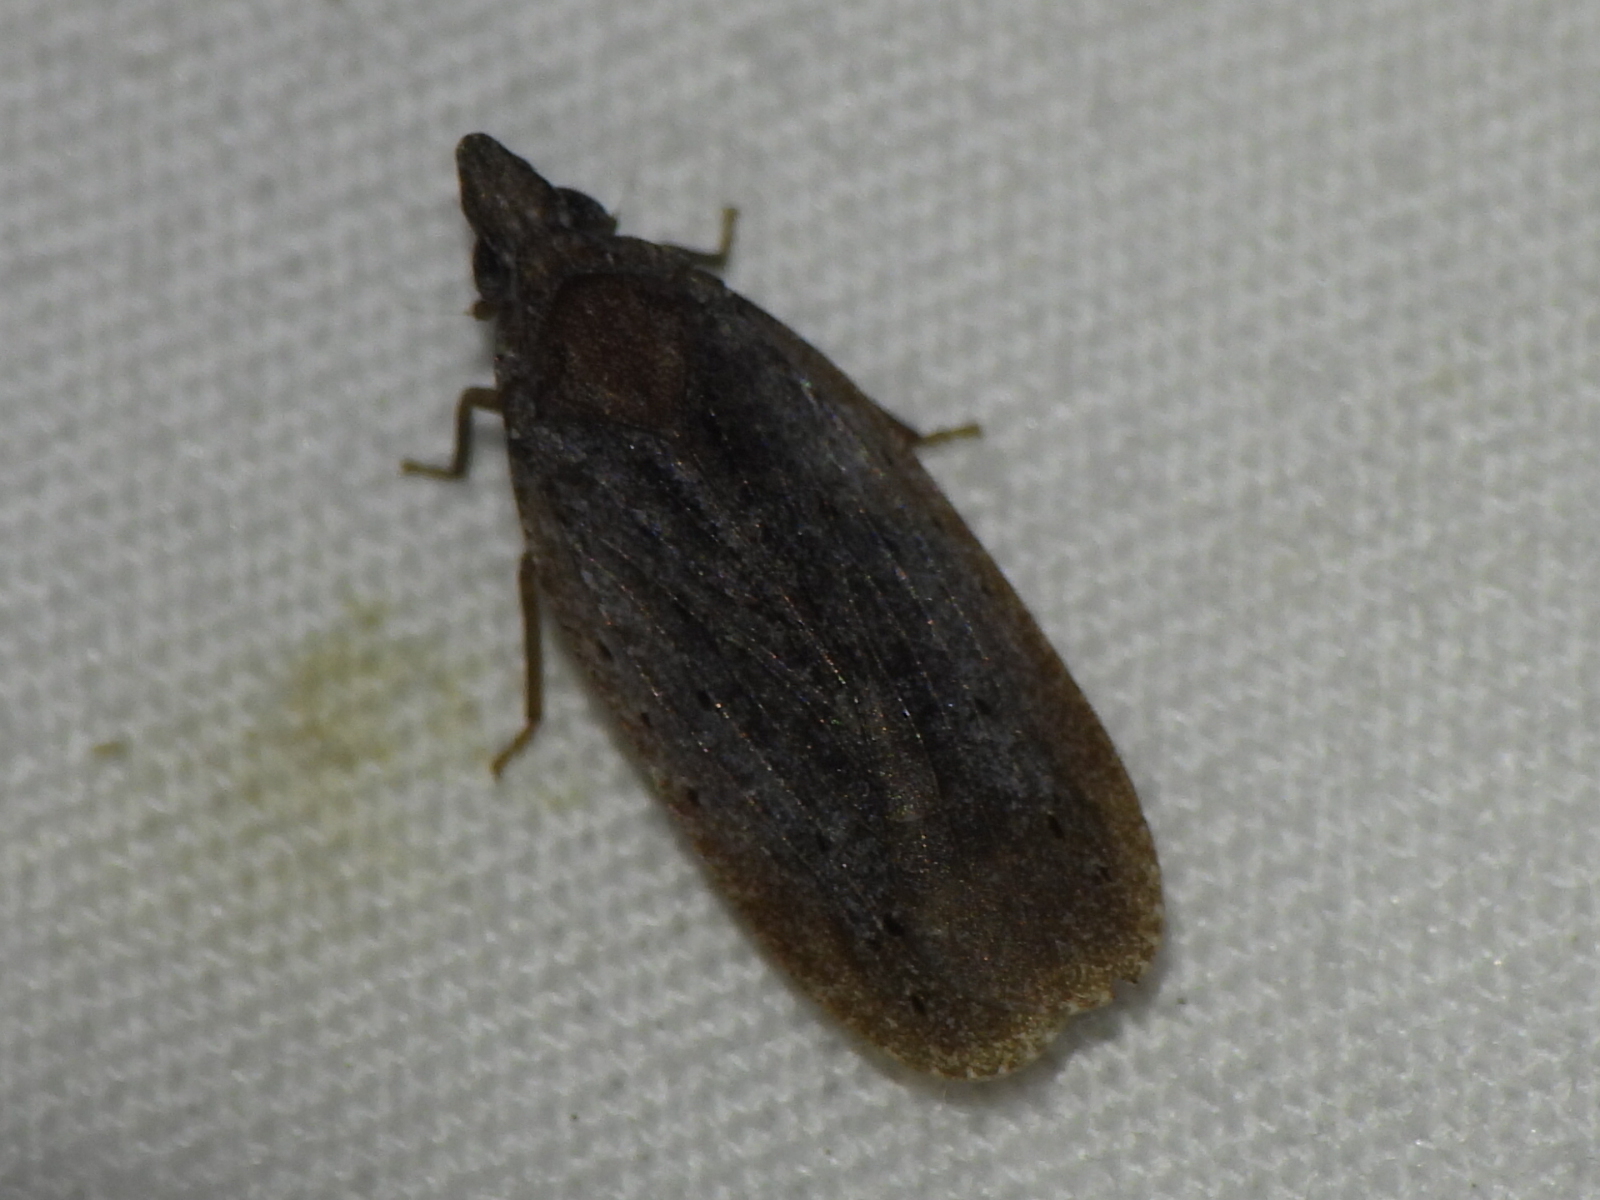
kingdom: Animalia
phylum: Arthropoda
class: Insecta
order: Hemiptera
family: Achilidae
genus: Cixidia
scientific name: Cixidia fusca
